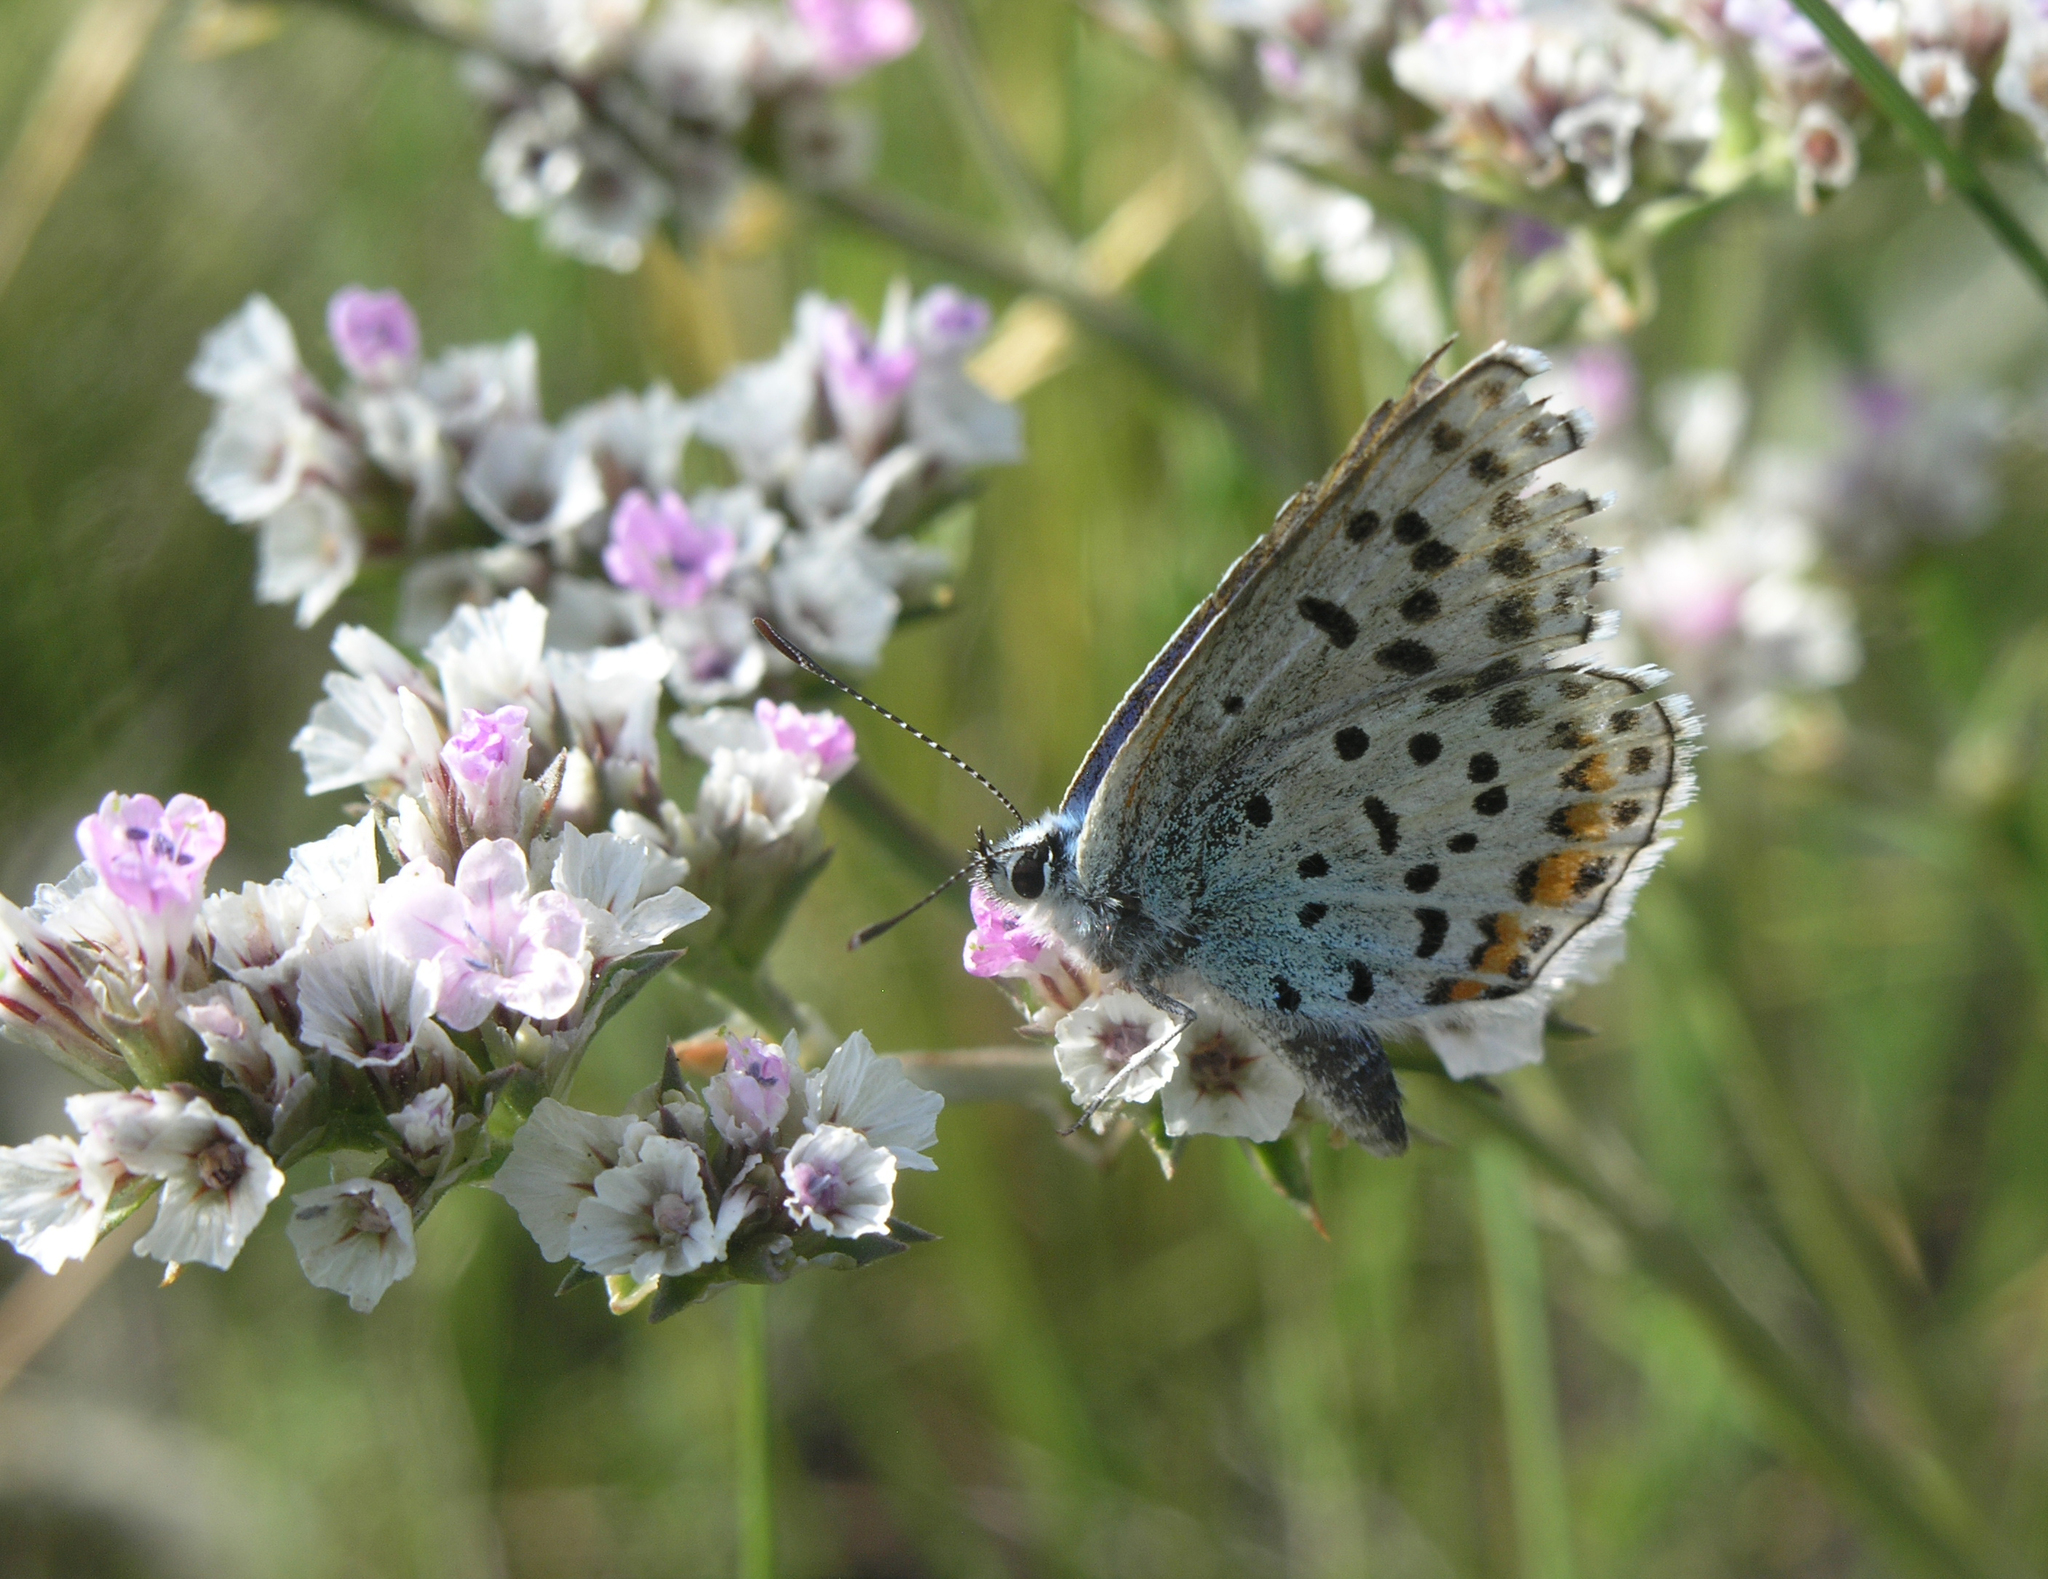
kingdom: Plantae
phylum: Tracheophyta
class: Magnoliopsida
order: Caryophyllales
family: Plumbaginaceae
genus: Goniolimon
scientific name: Goniolimon speciosum
